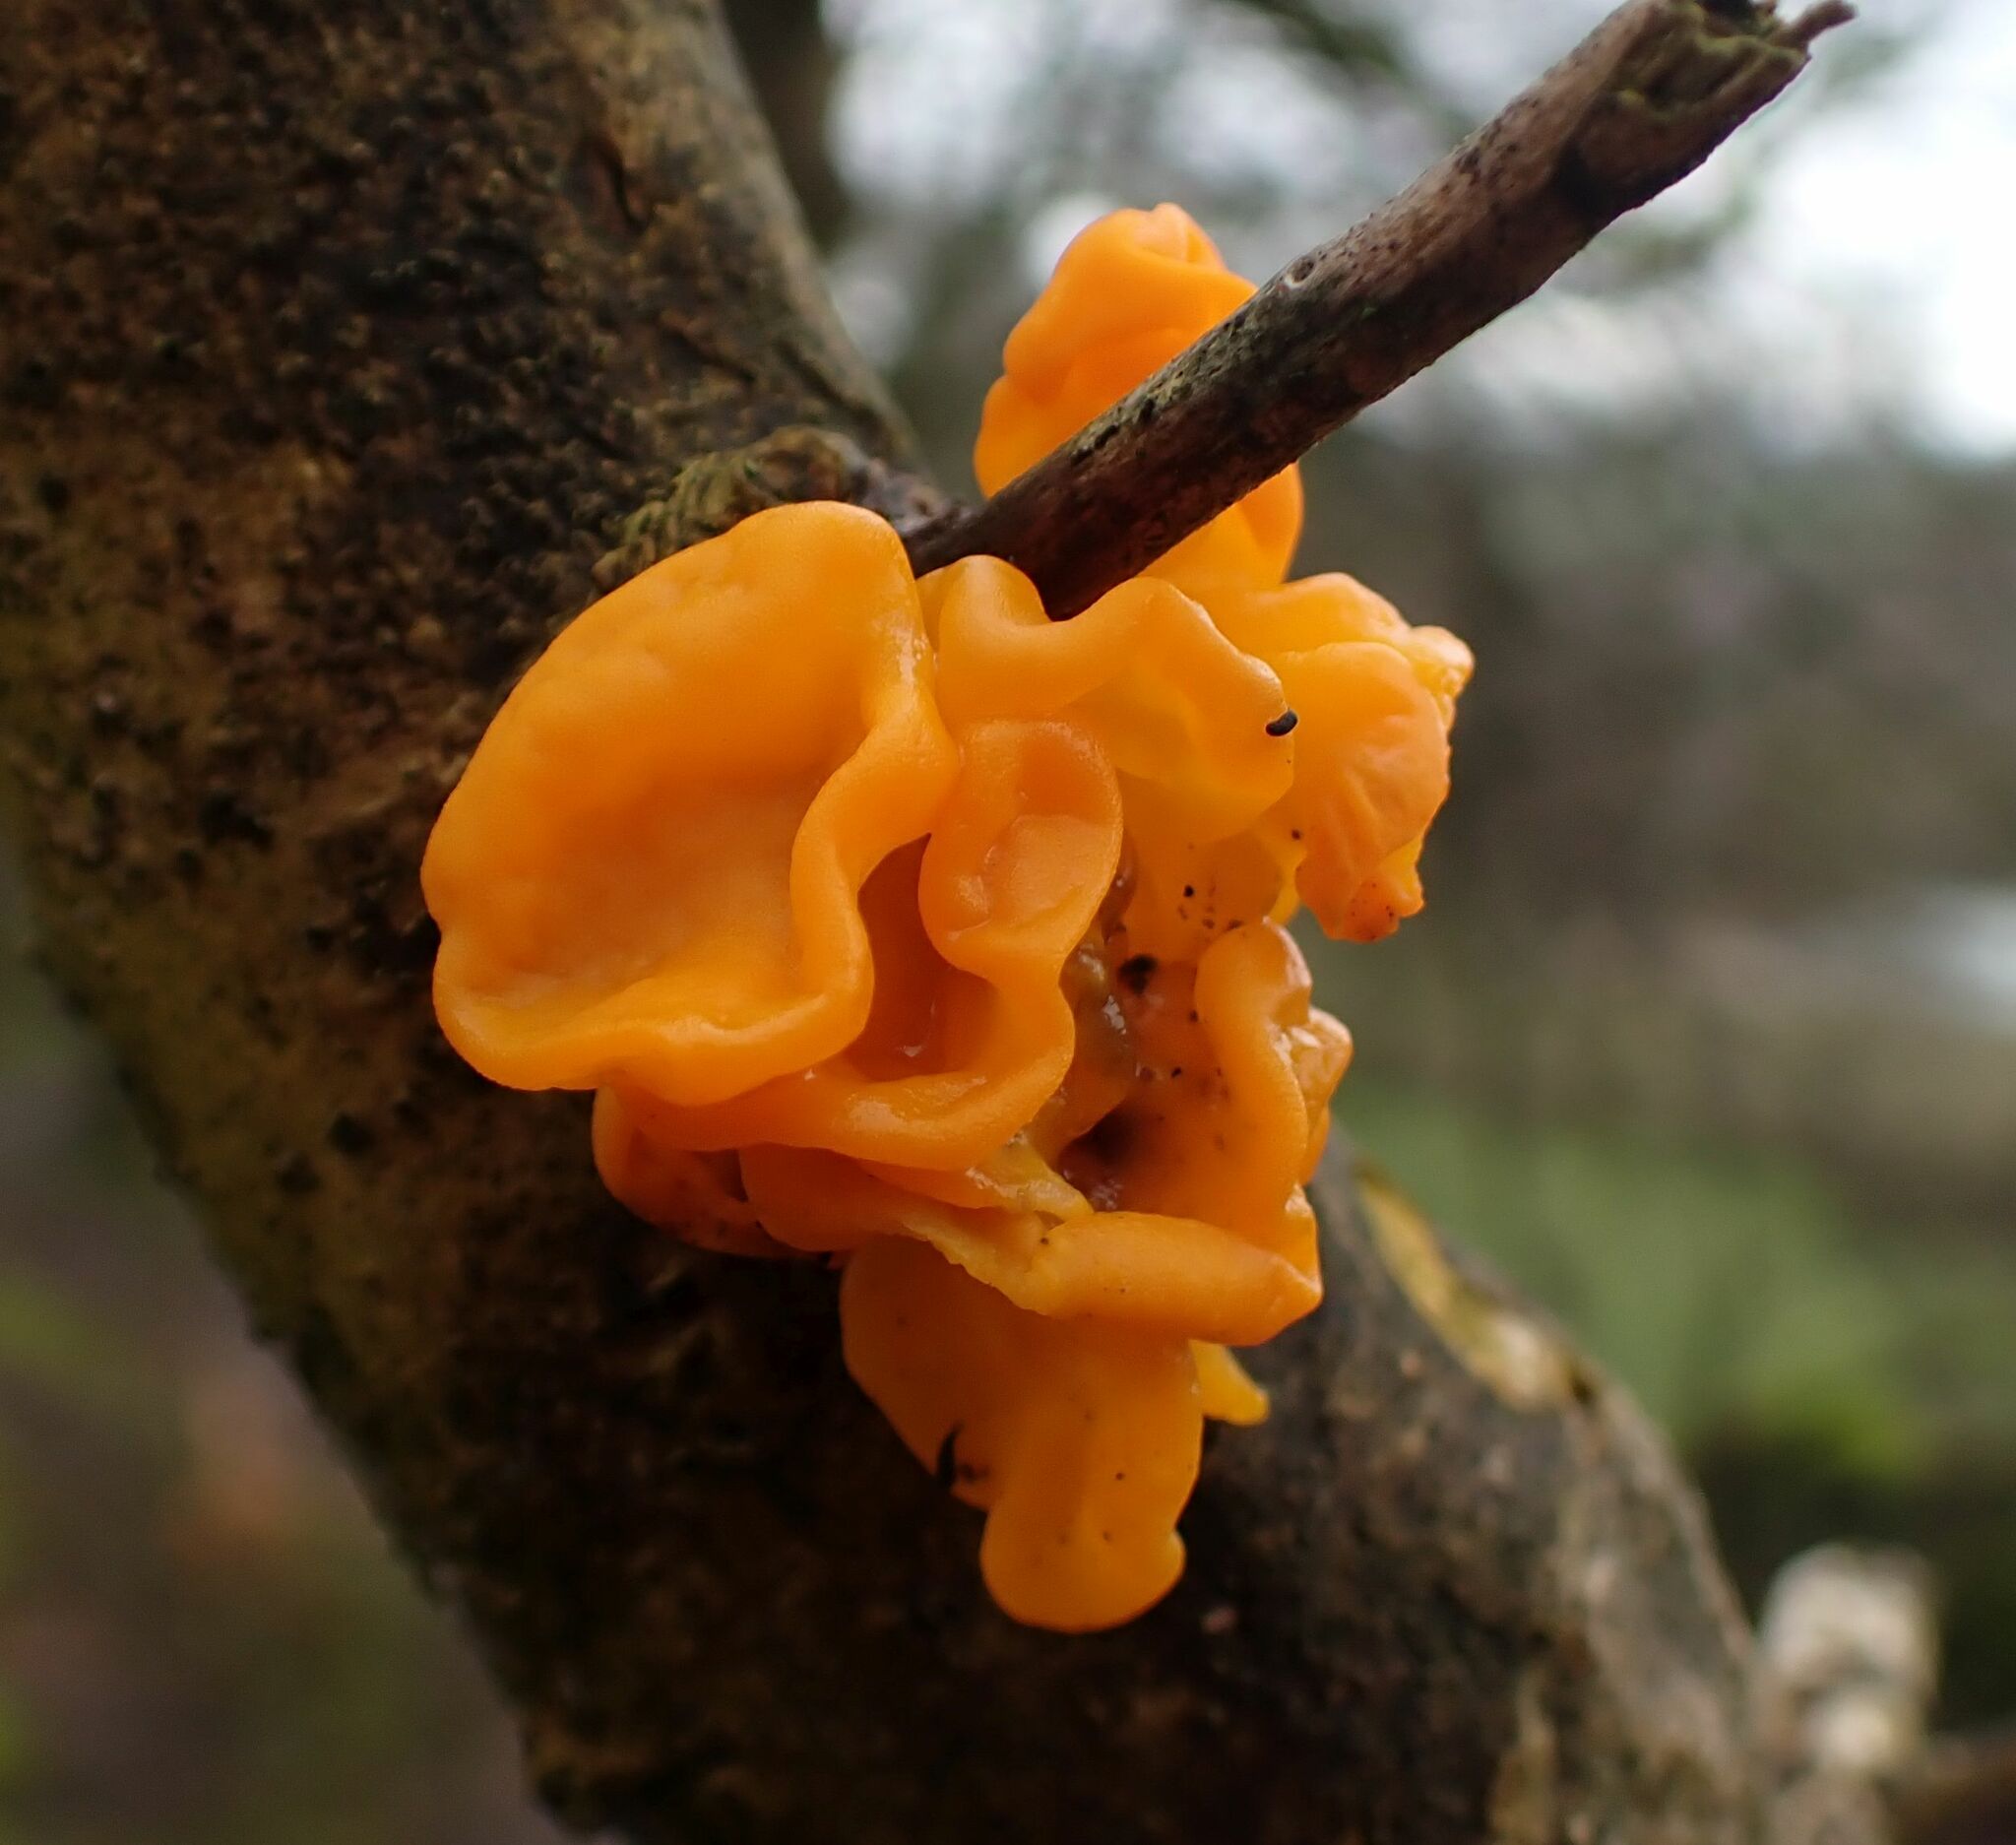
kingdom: Fungi
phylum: Basidiomycota
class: Tremellomycetes
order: Tremellales
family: Tremellaceae
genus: Tremella
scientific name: Tremella mesenterica
